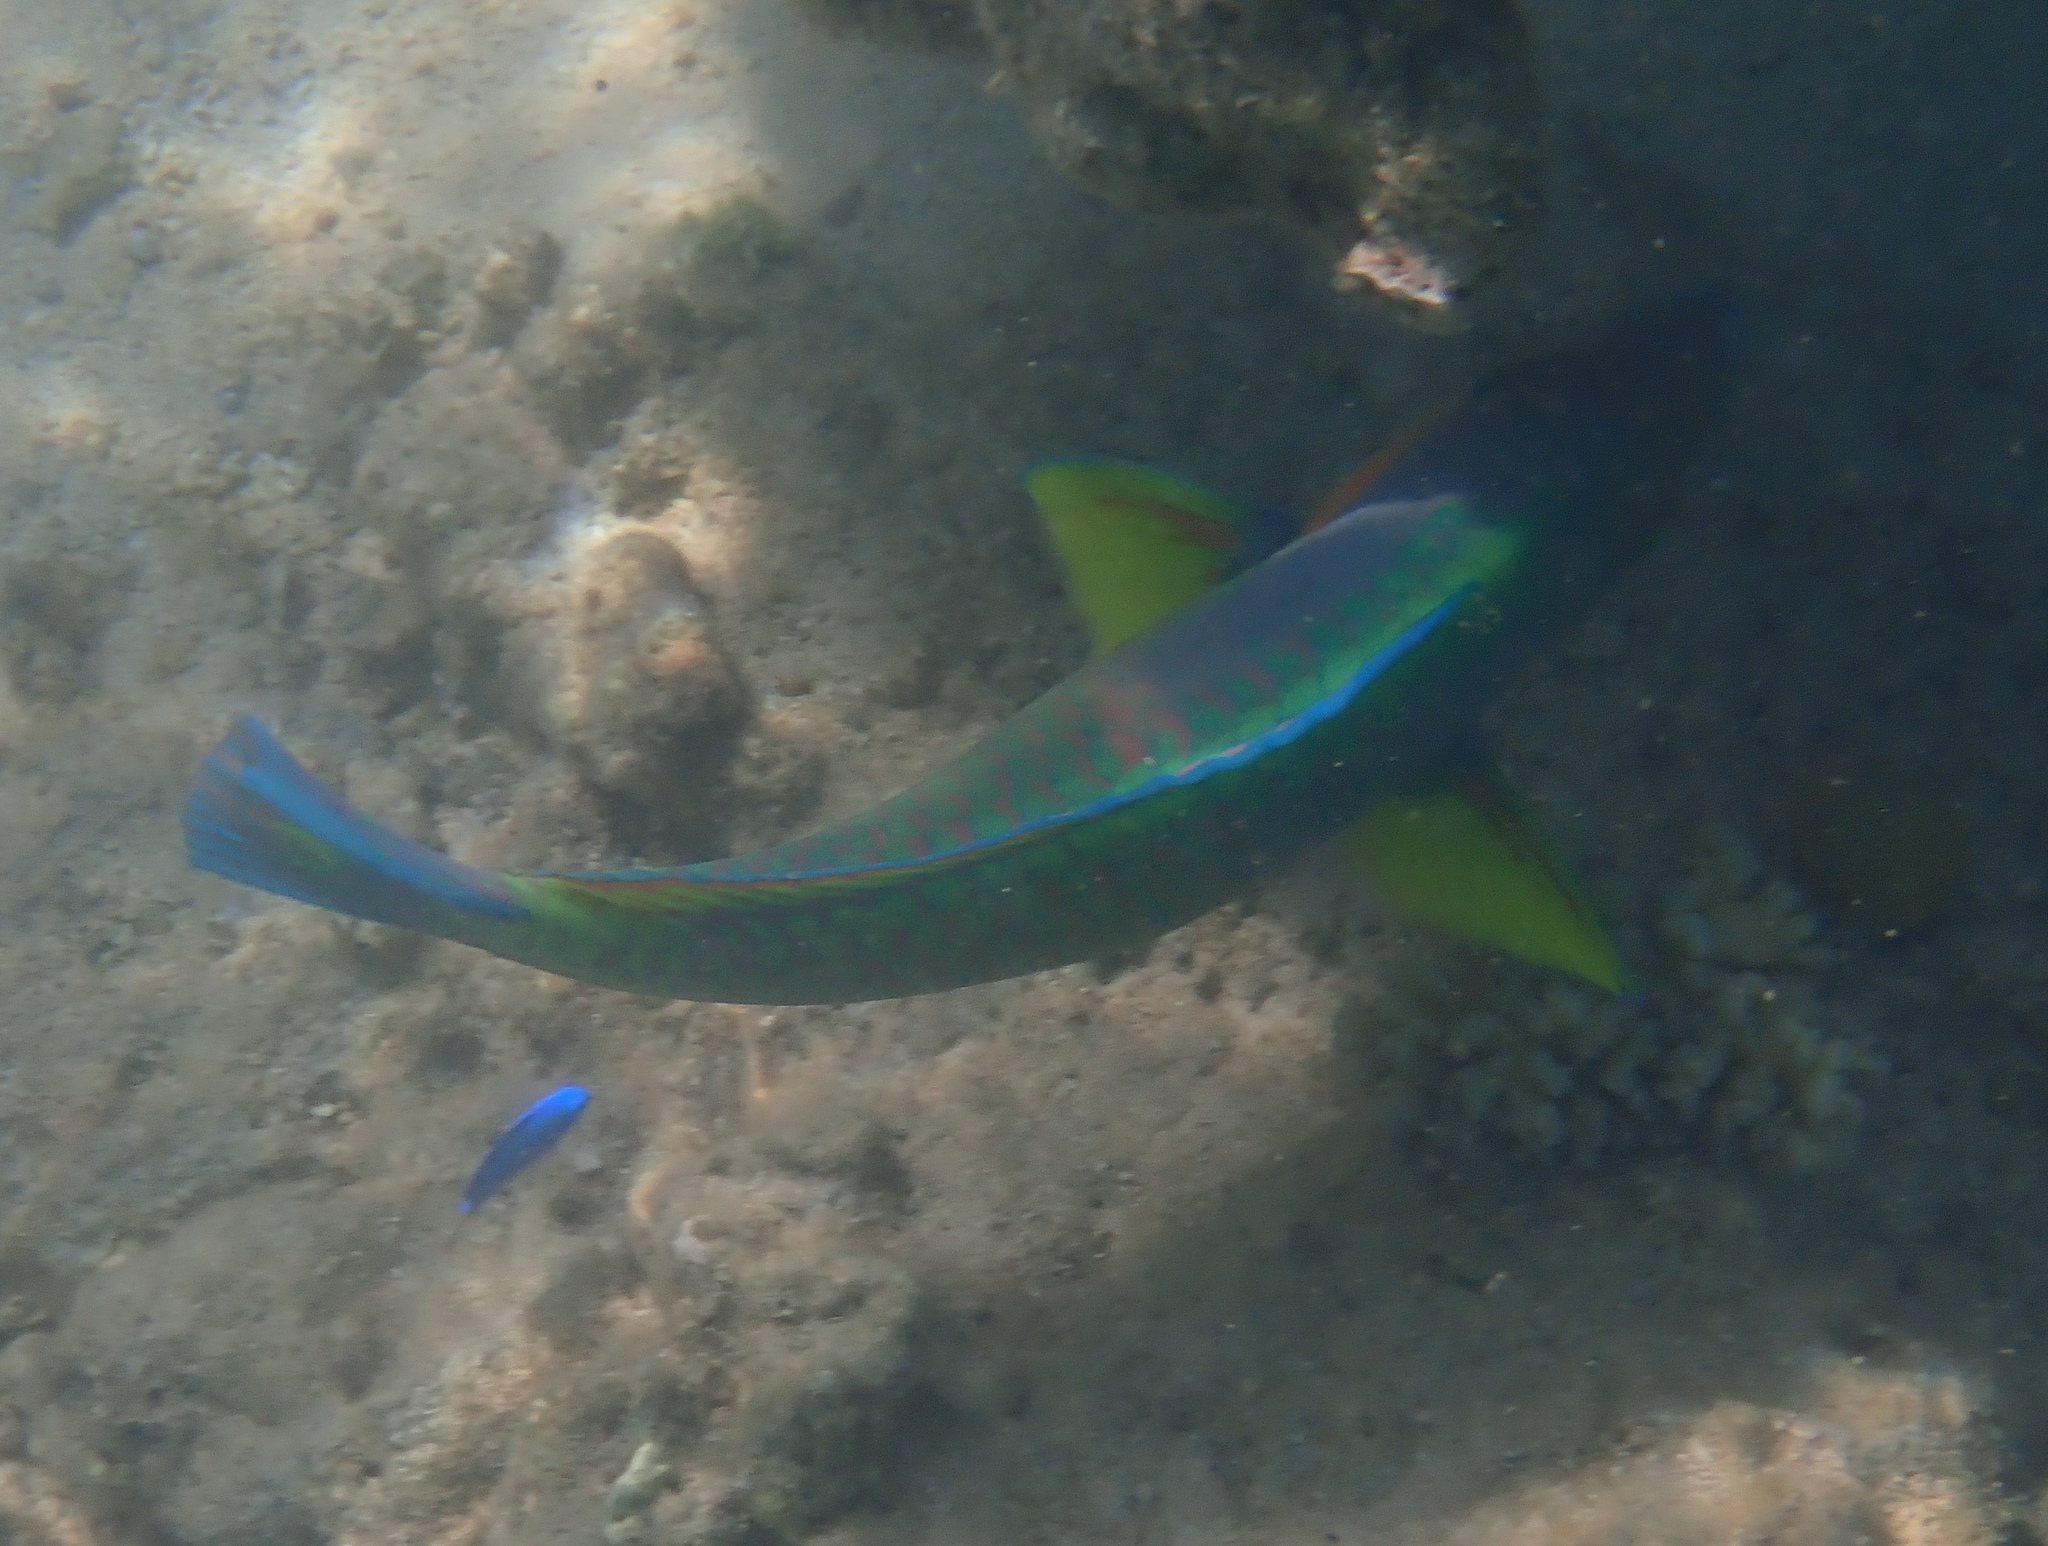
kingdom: Animalia
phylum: Chordata
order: Perciformes
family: Scaridae
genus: Scarus
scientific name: Scarus rivulatus
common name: Surf parrotfish
